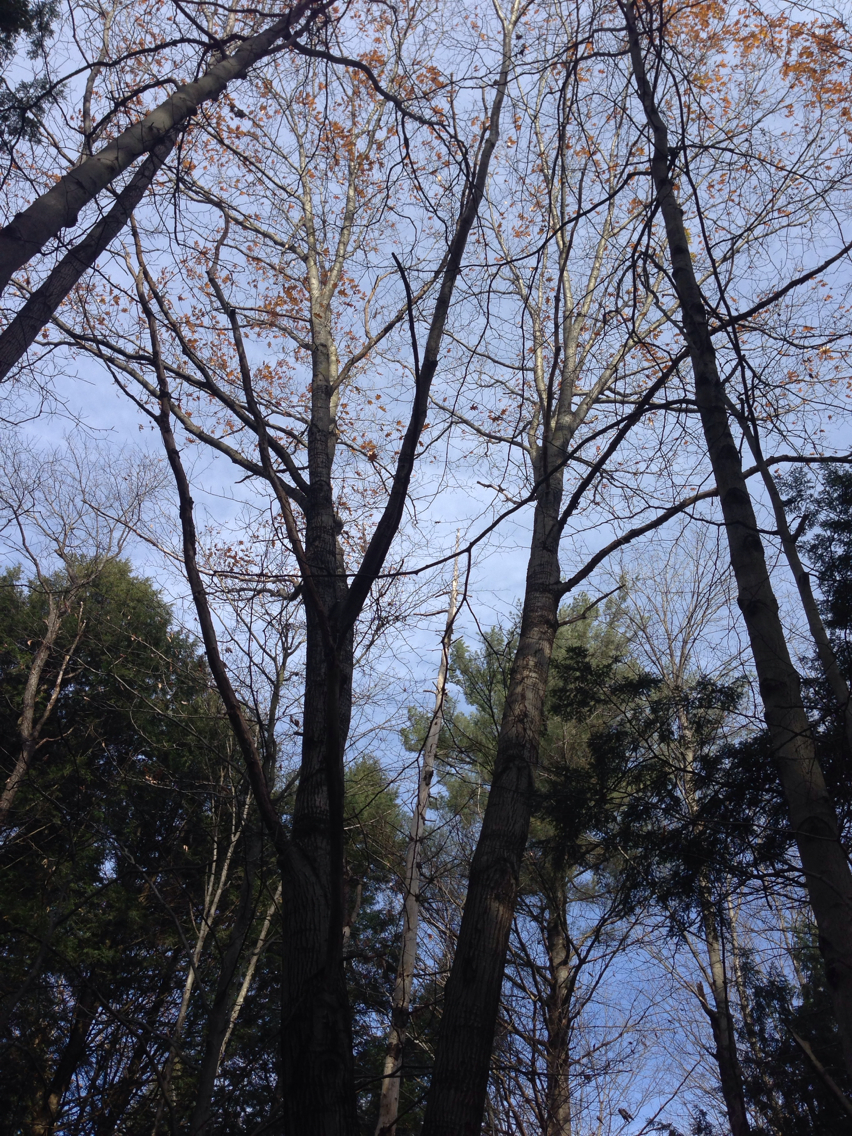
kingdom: Plantae
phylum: Tracheophyta
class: Magnoliopsida
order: Fagales
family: Fagaceae
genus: Quercus
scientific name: Quercus rubra
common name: Red oak
